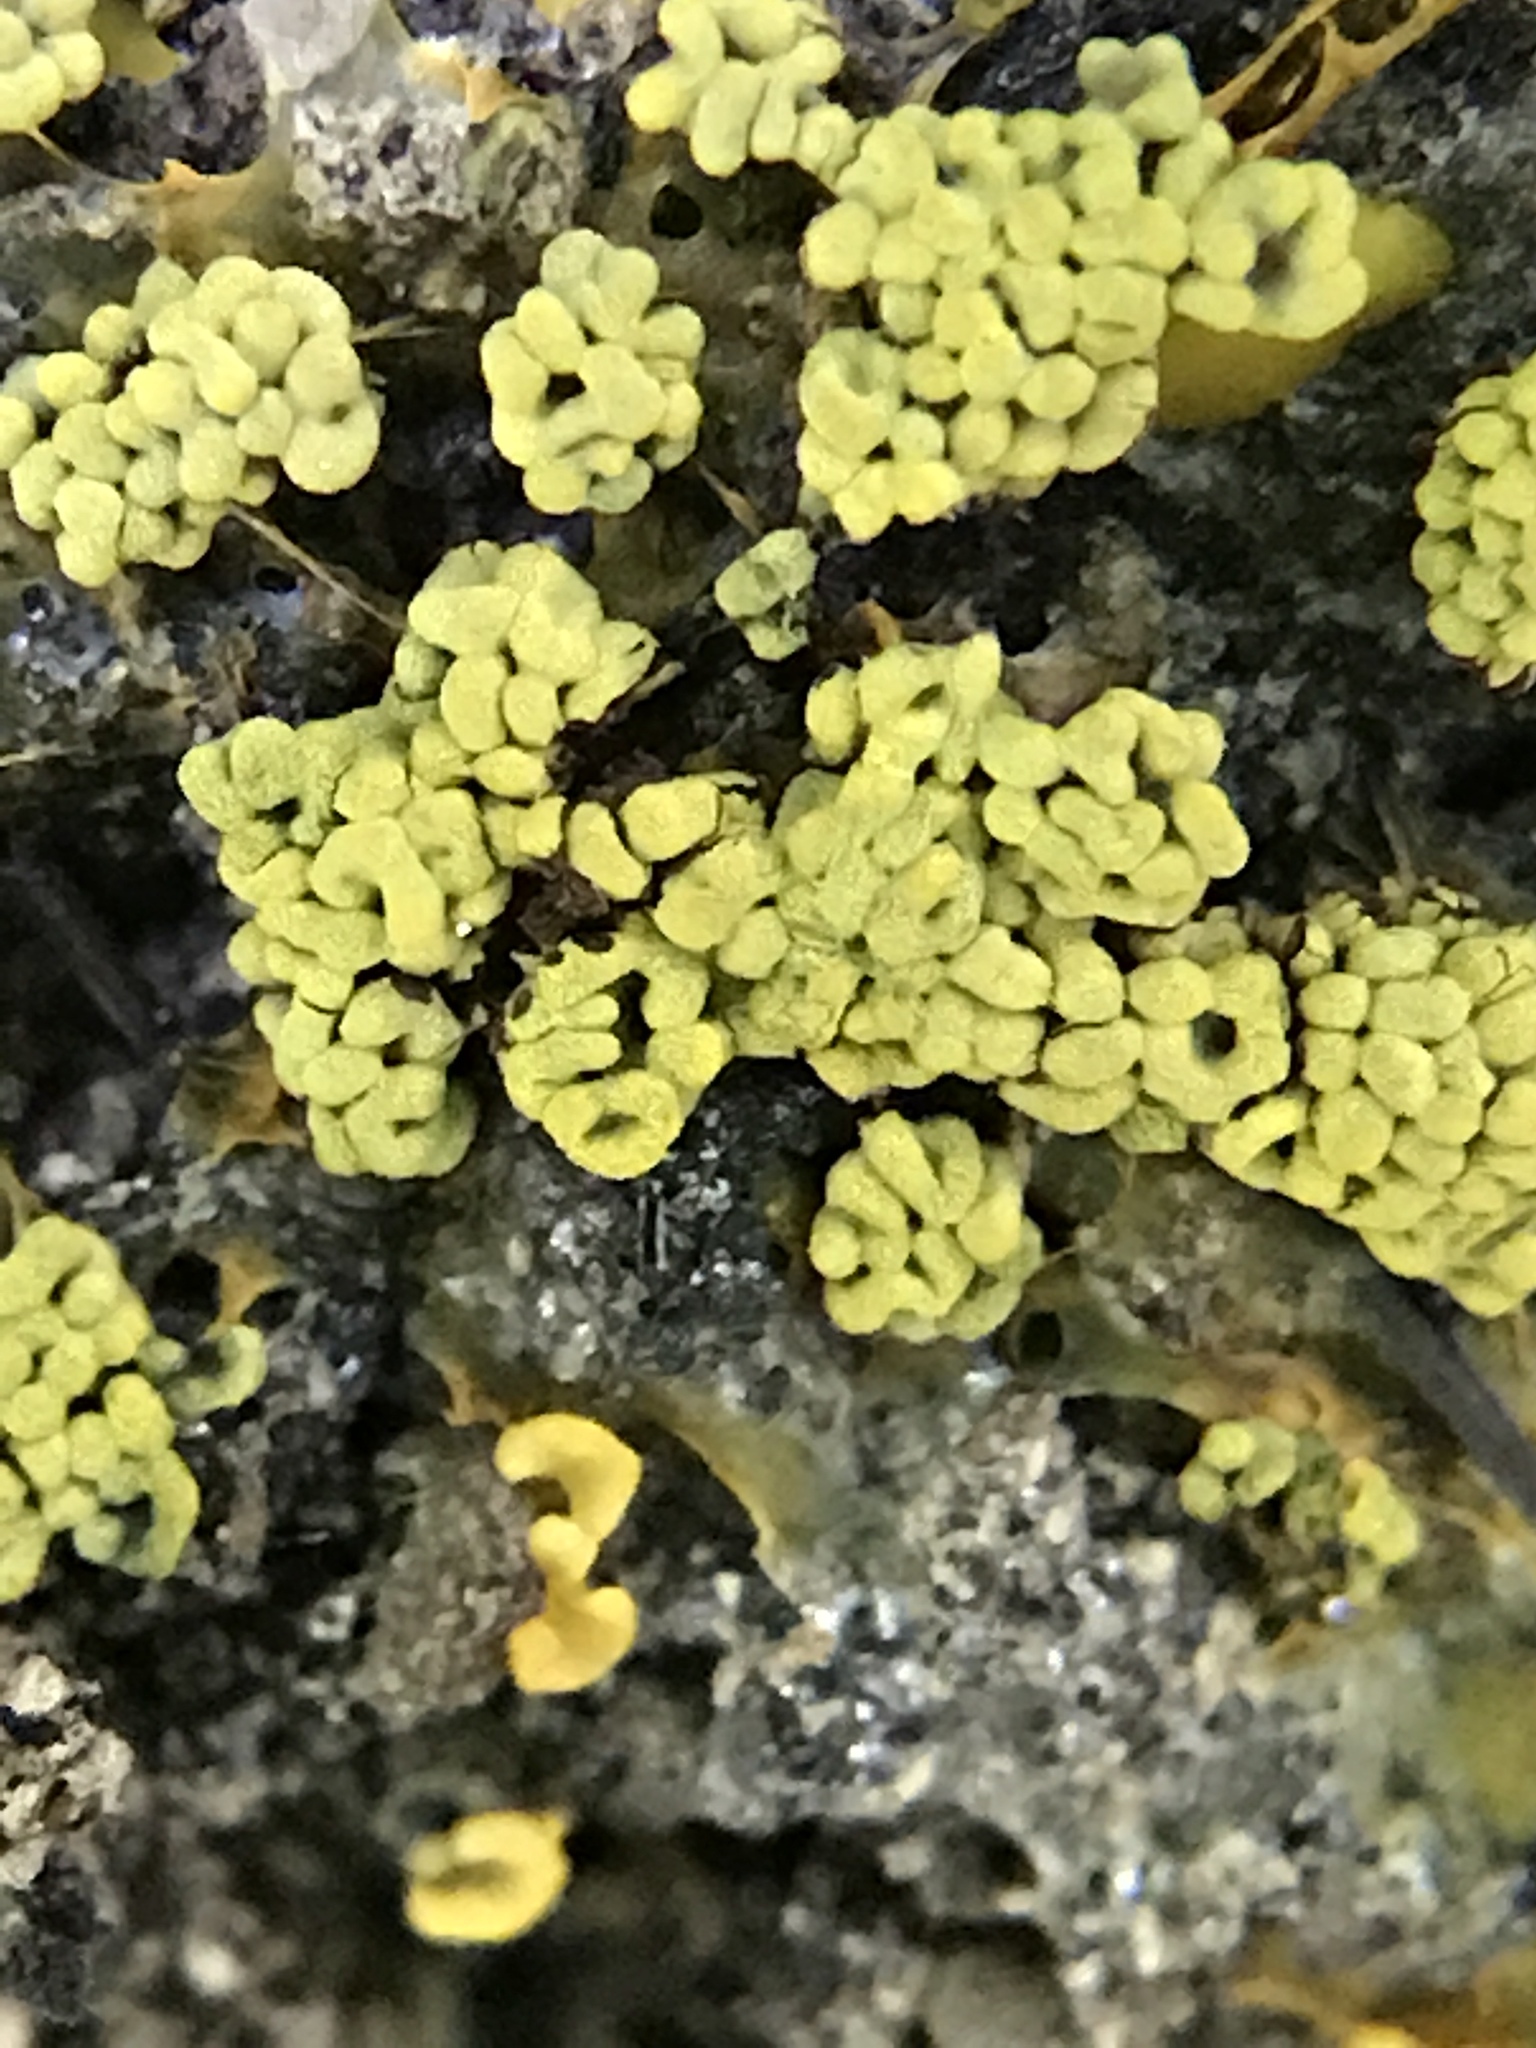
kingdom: Protozoa
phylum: Mycetozoa
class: Myxomycetes
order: Physarales
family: Physaraceae
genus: Physarum
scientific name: Physarum polycephalum
